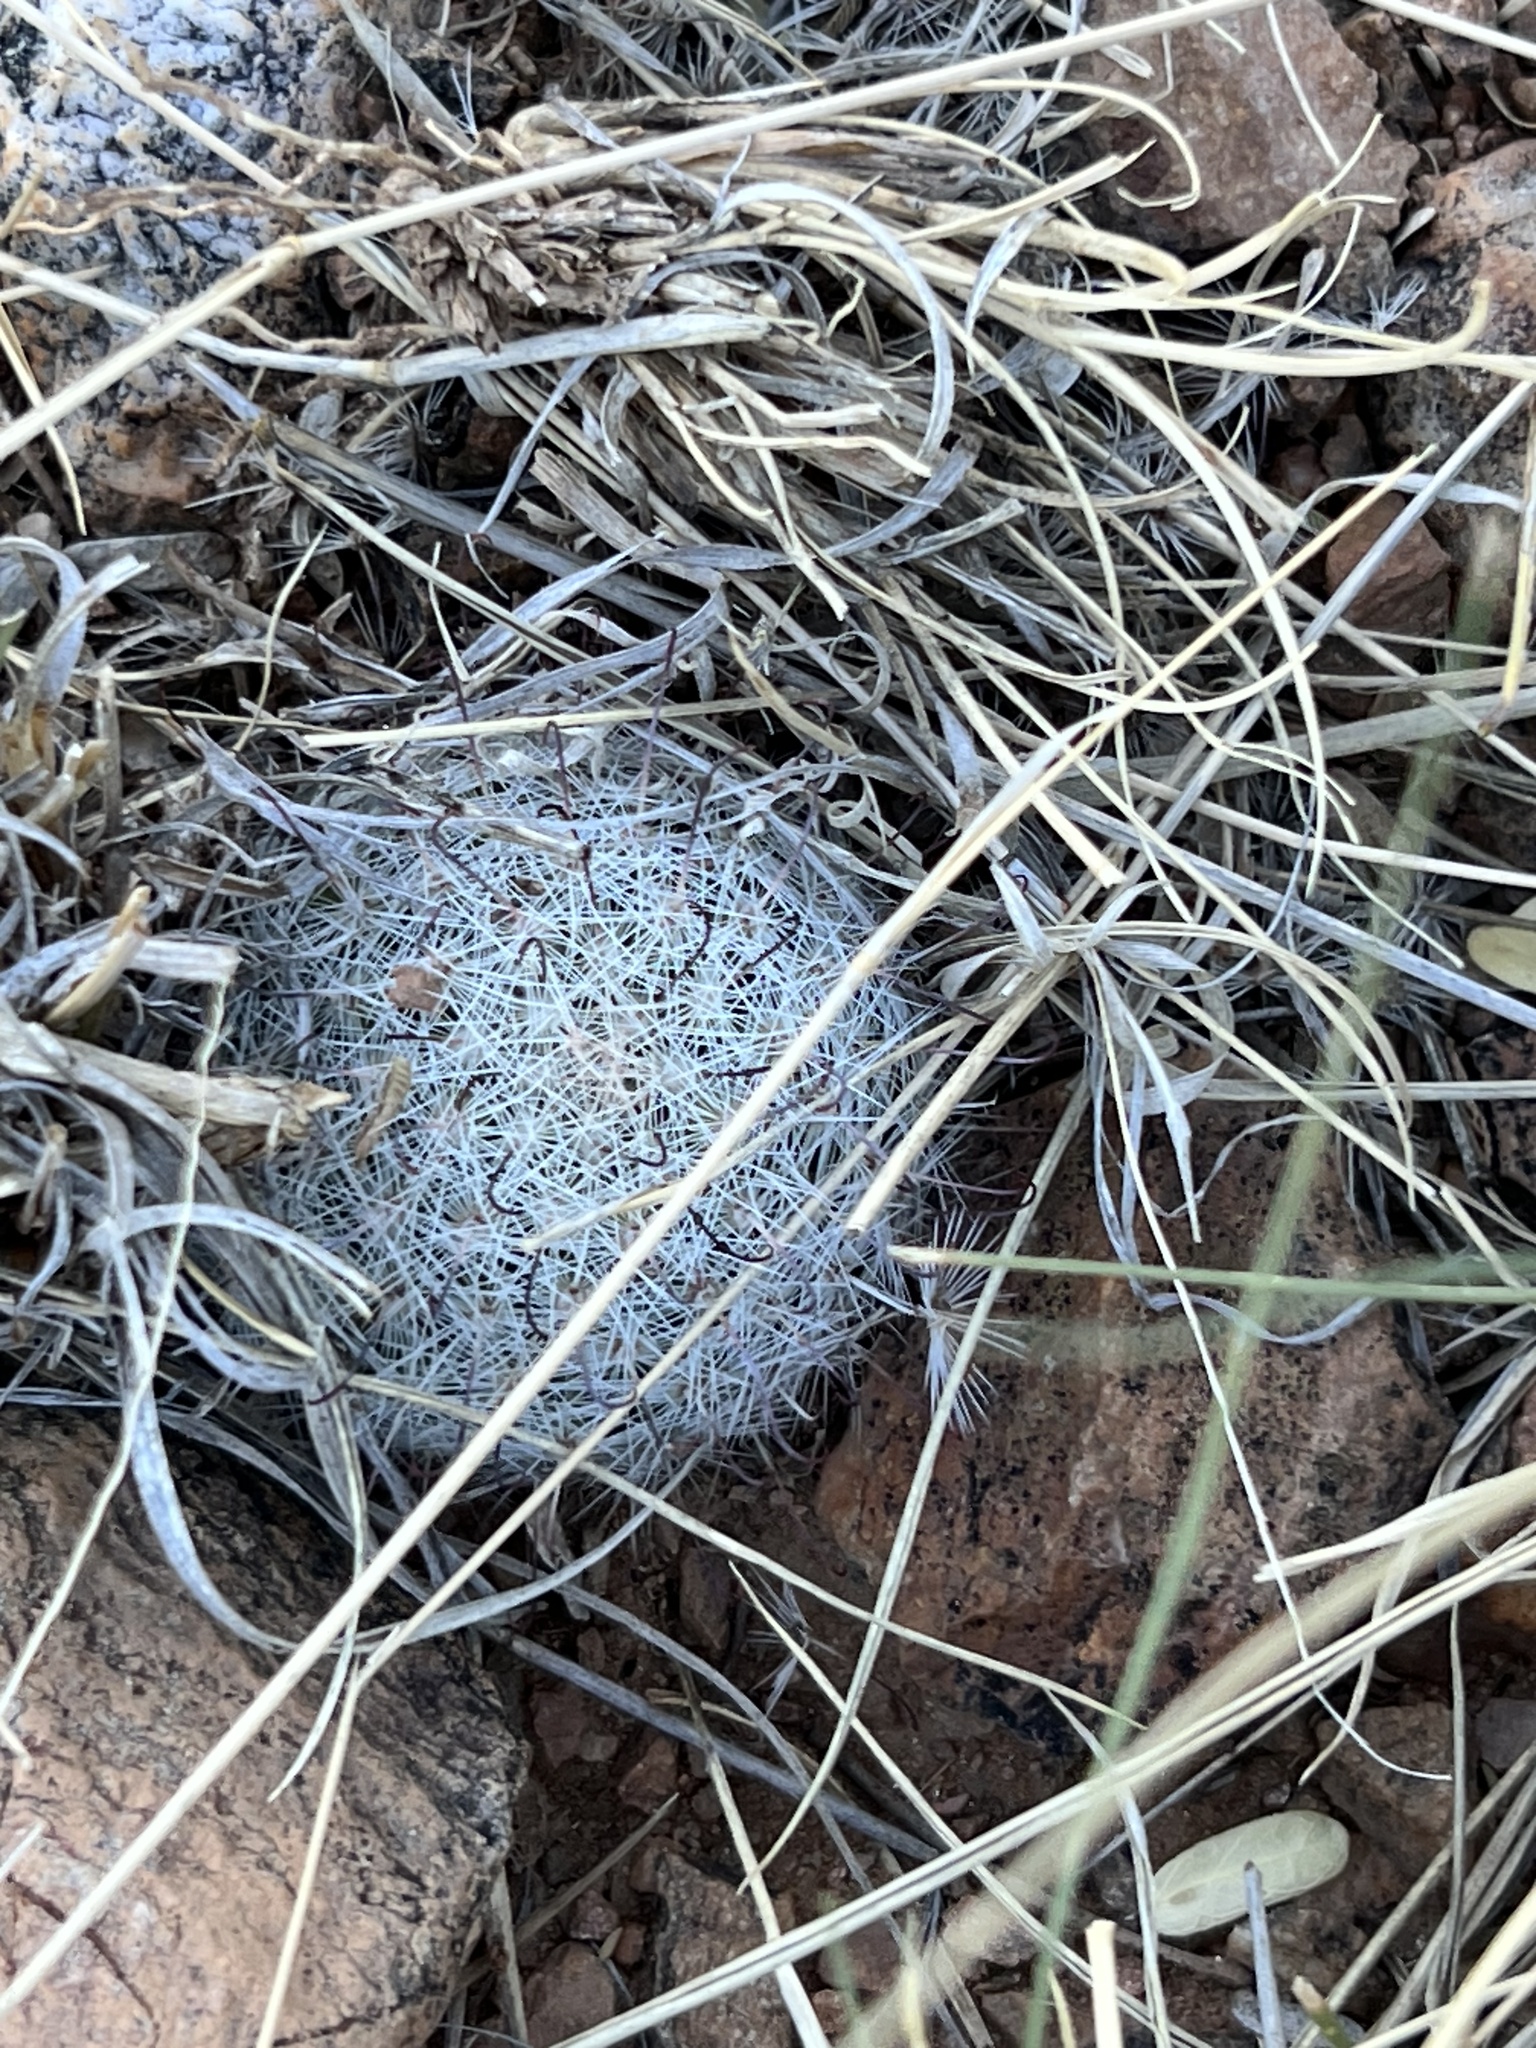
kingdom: Plantae
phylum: Tracheophyta
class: Magnoliopsida
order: Caryophyllales
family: Cactaceae
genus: Cochemiea
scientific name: Cochemiea grahamii
